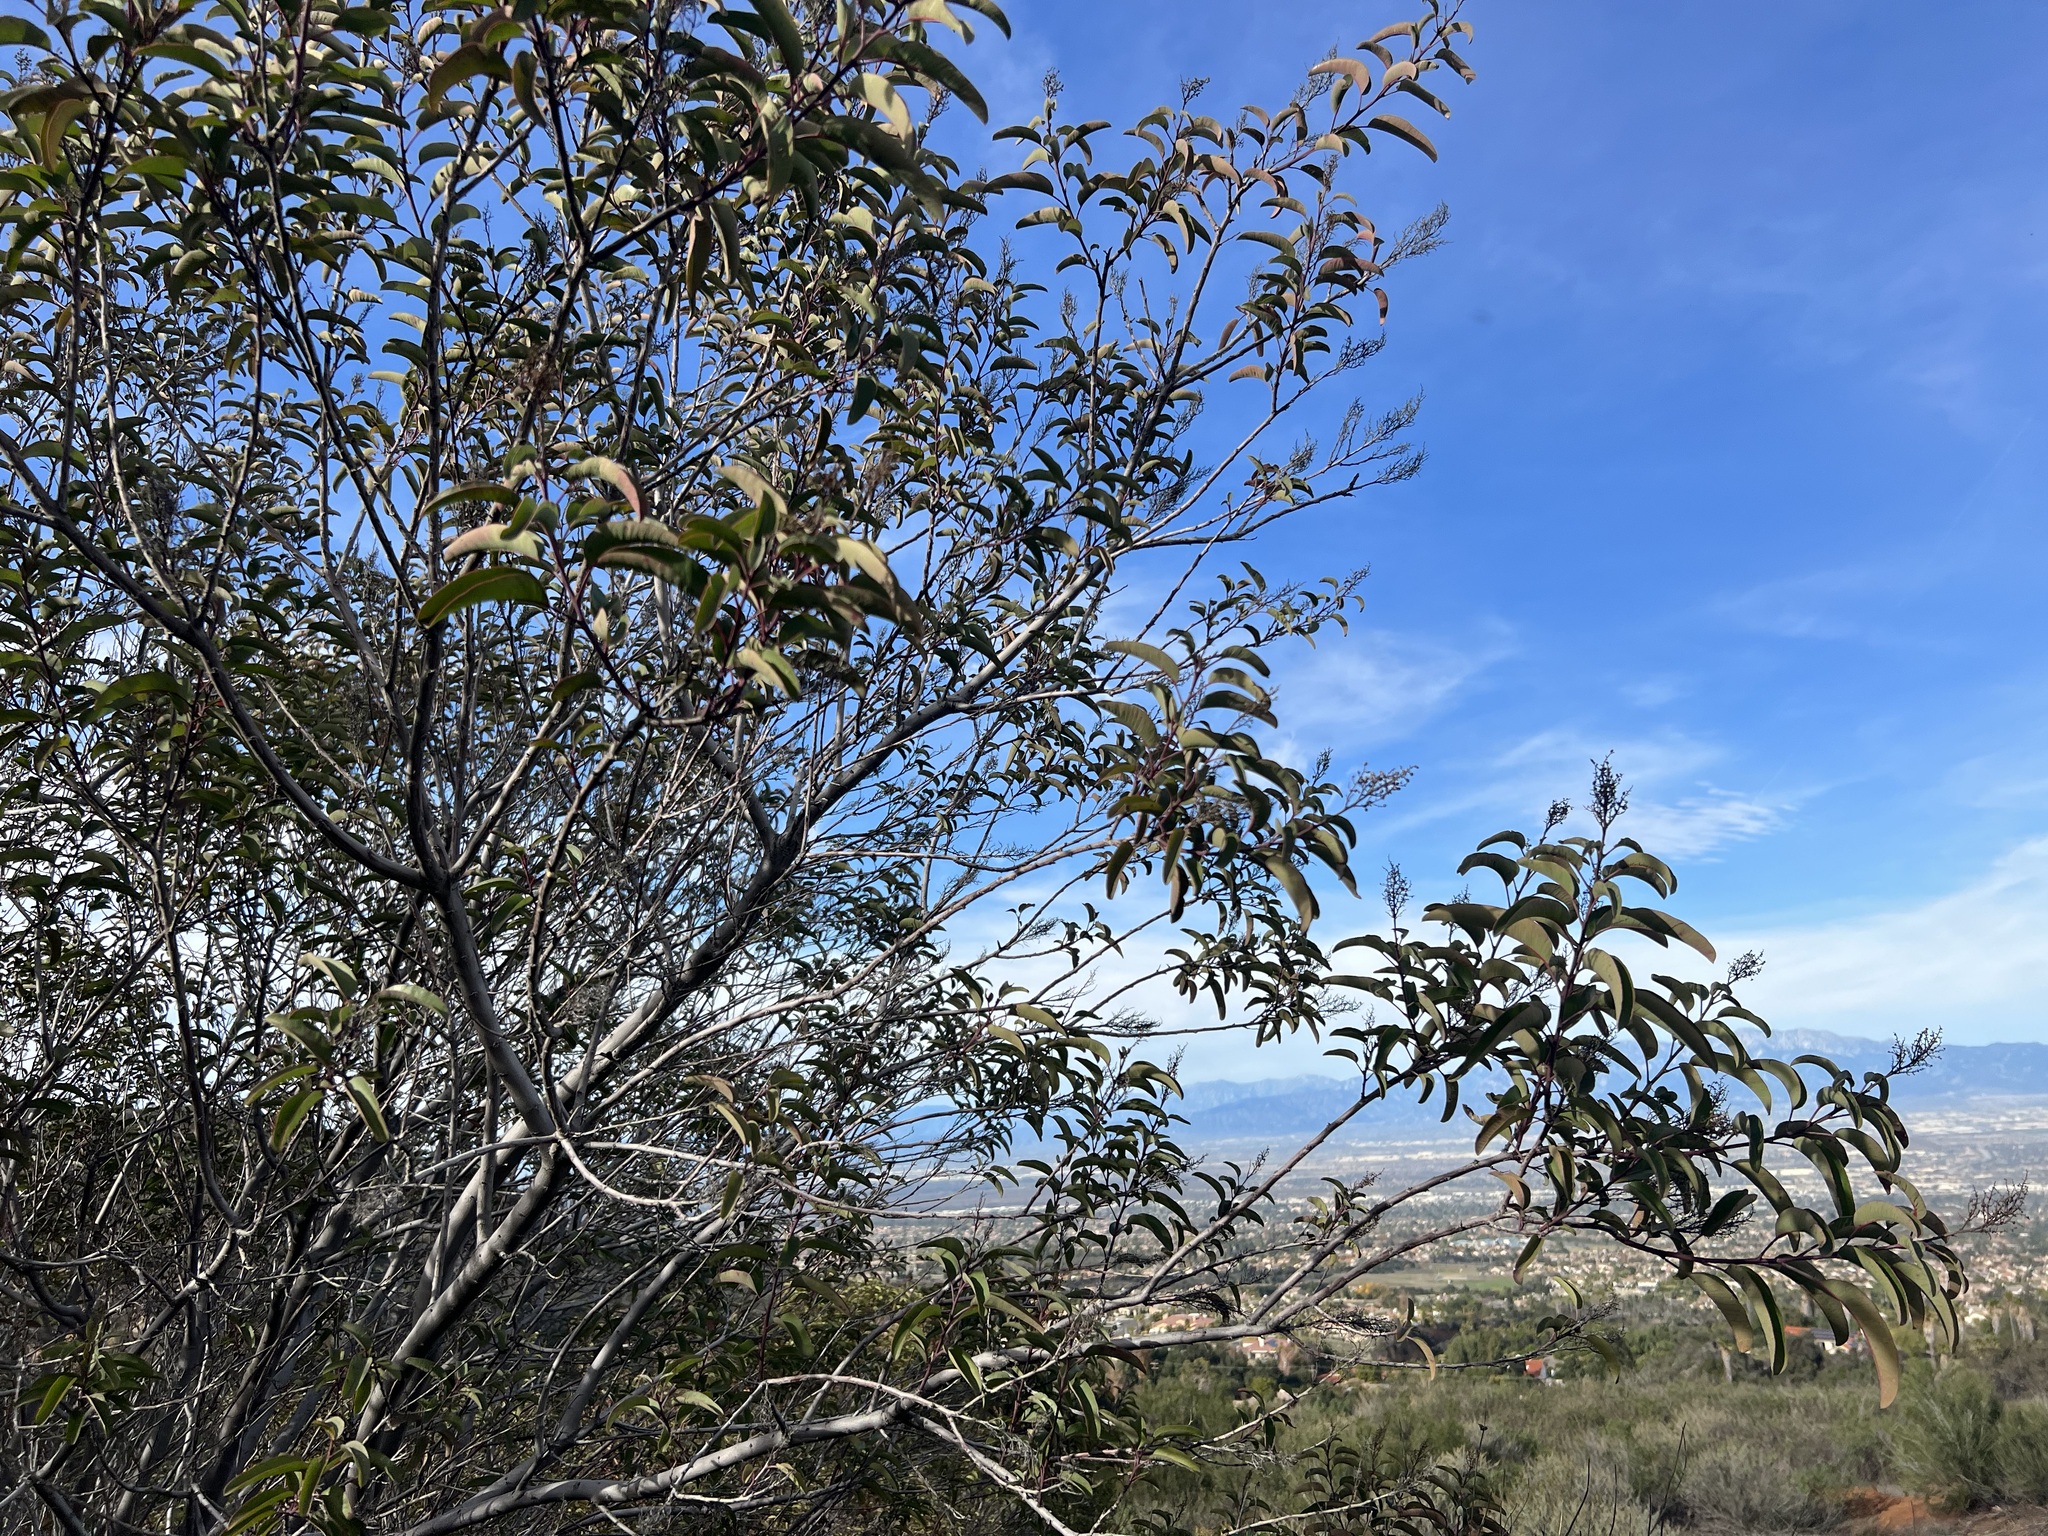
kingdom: Plantae
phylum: Tracheophyta
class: Magnoliopsida
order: Sapindales
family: Anacardiaceae
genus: Malosma
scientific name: Malosma laurina
